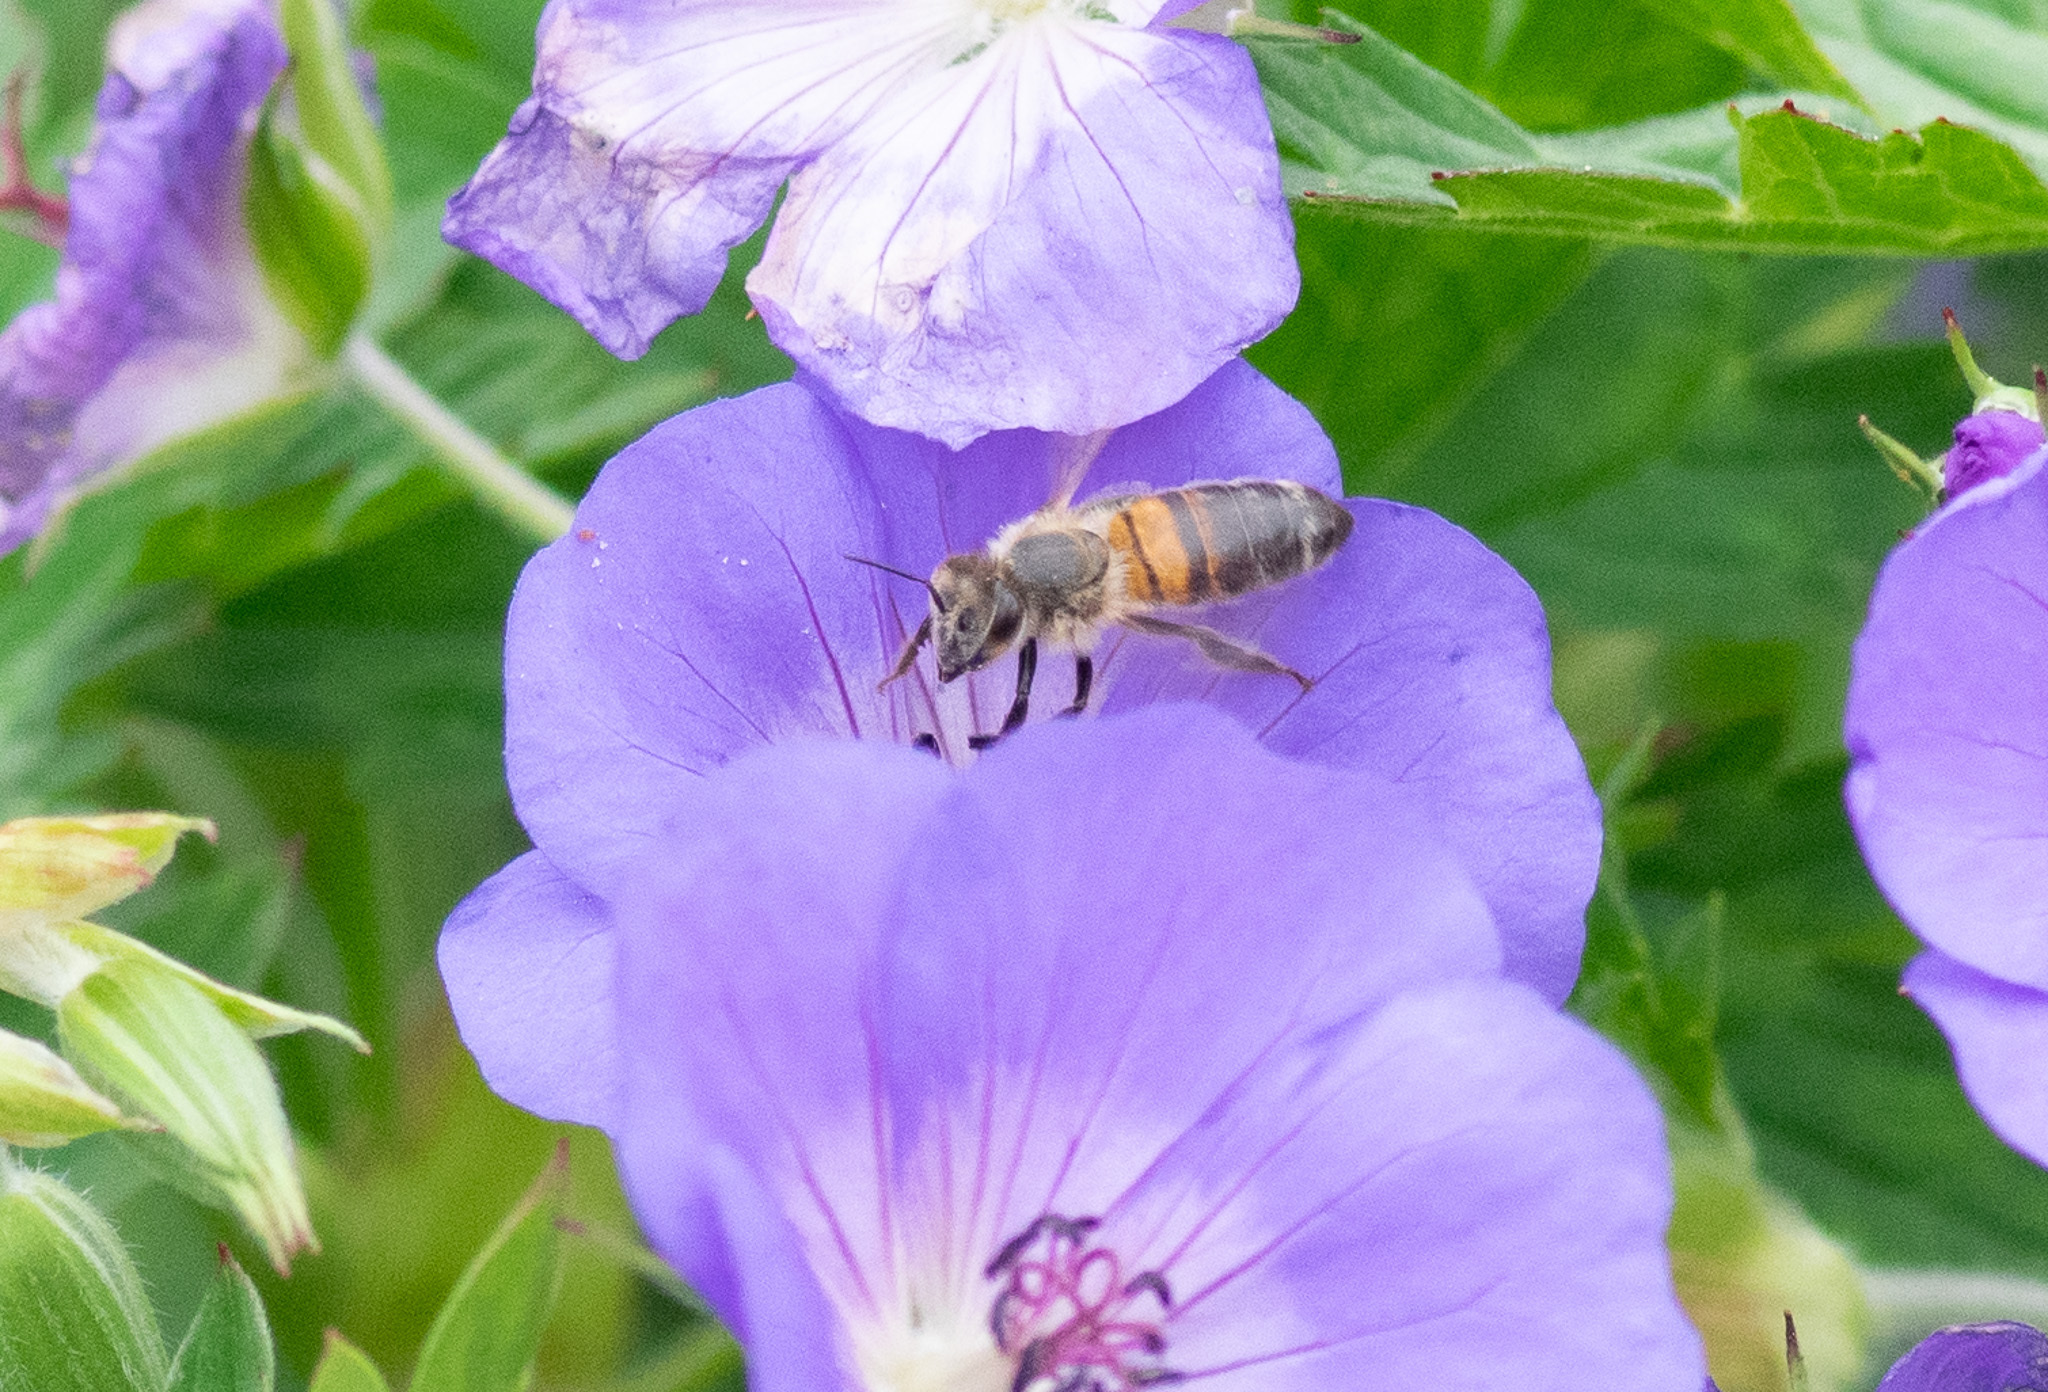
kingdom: Animalia
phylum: Arthropoda
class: Insecta
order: Hymenoptera
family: Apidae
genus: Apis
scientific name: Apis mellifera
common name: Honey bee
